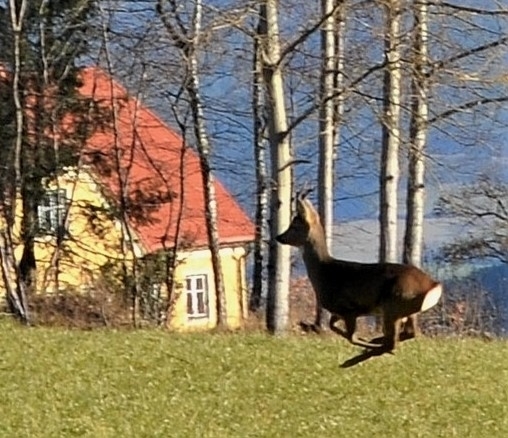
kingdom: Animalia
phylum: Chordata
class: Mammalia
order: Artiodactyla
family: Cervidae
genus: Capreolus
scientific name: Capreolus capreolus
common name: Western roe deer
